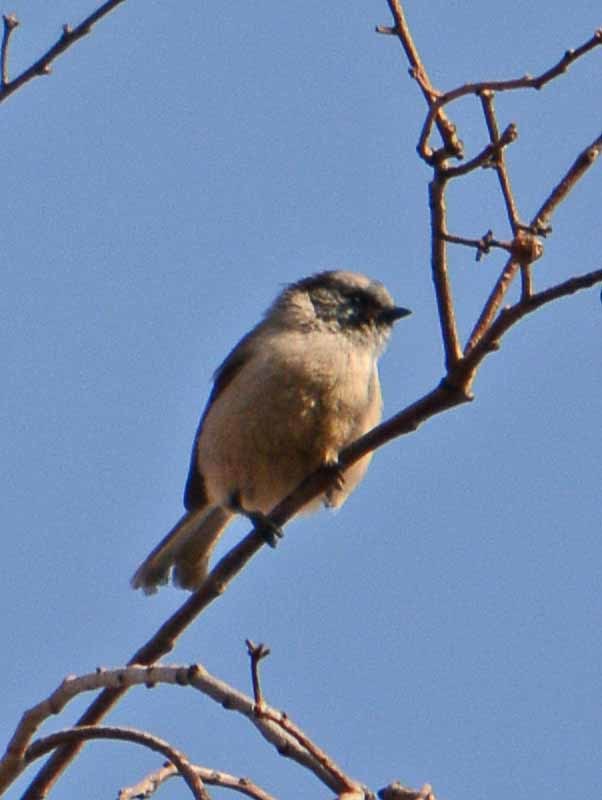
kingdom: Animalia
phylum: Chordata
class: Aves
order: Passeriformes
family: Aegithalidae
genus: Psaltriparus
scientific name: Psaltriparus minimus
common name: American bushtit
